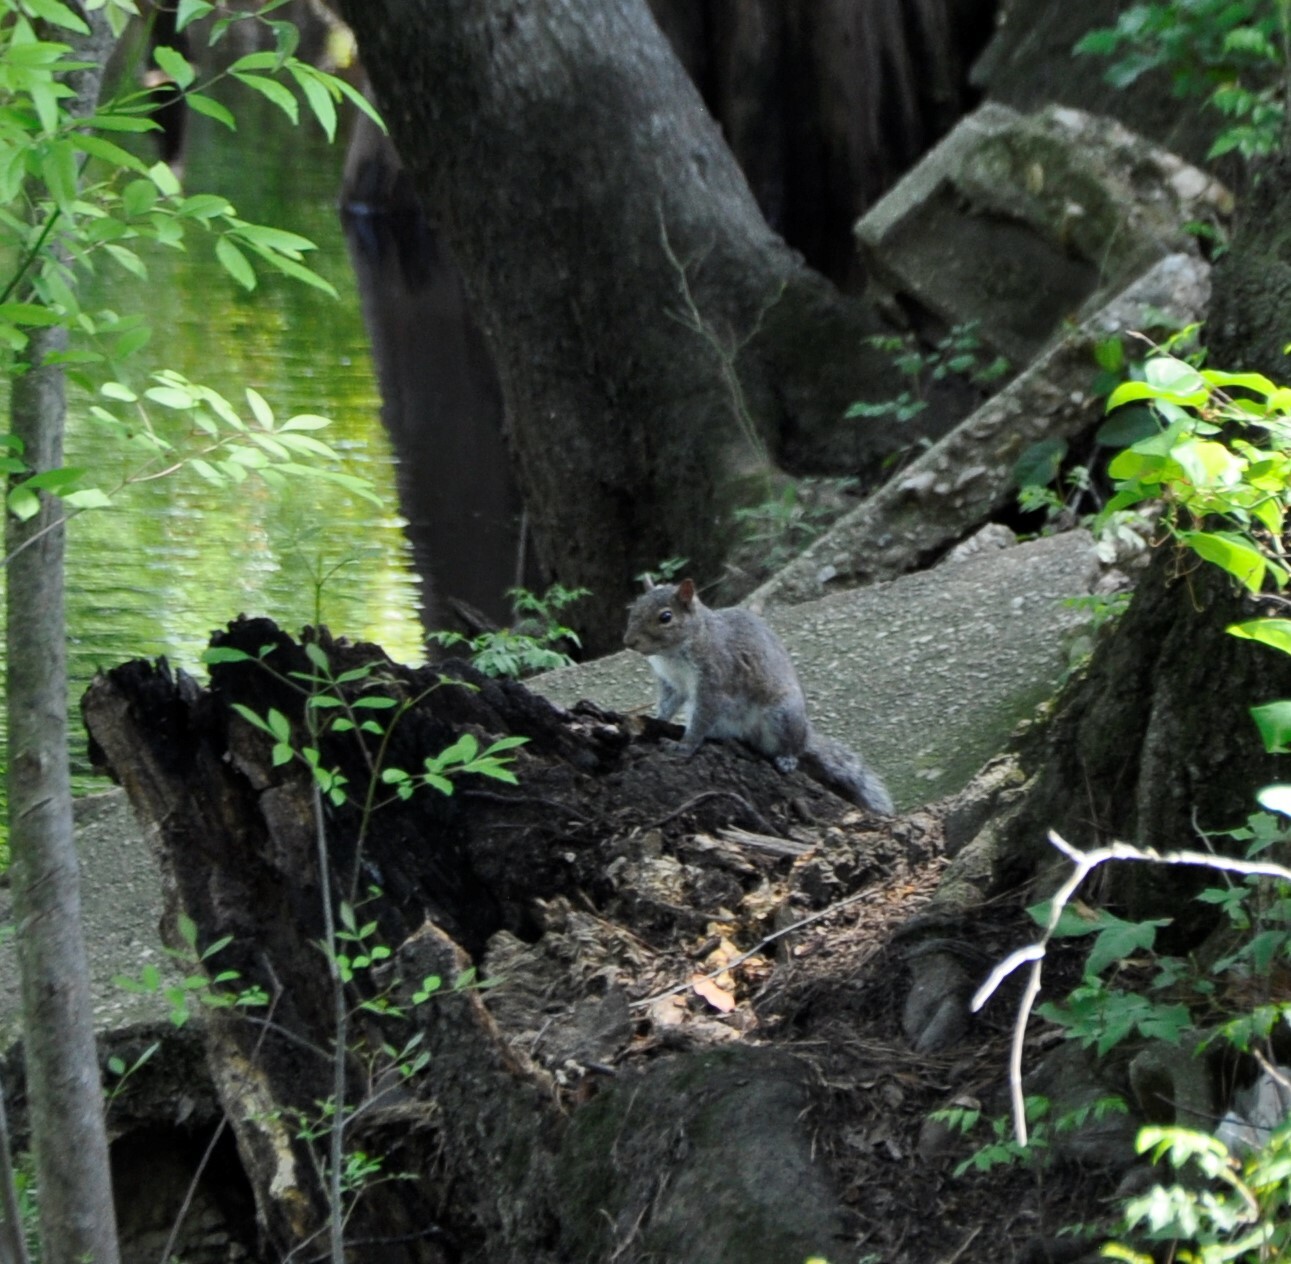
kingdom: Animalia
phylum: Chordata
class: Mammalia
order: Rodentia
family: Sciuridae
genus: Sciurus
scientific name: Sciurus carolinensis
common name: Eastern gray squirrel
